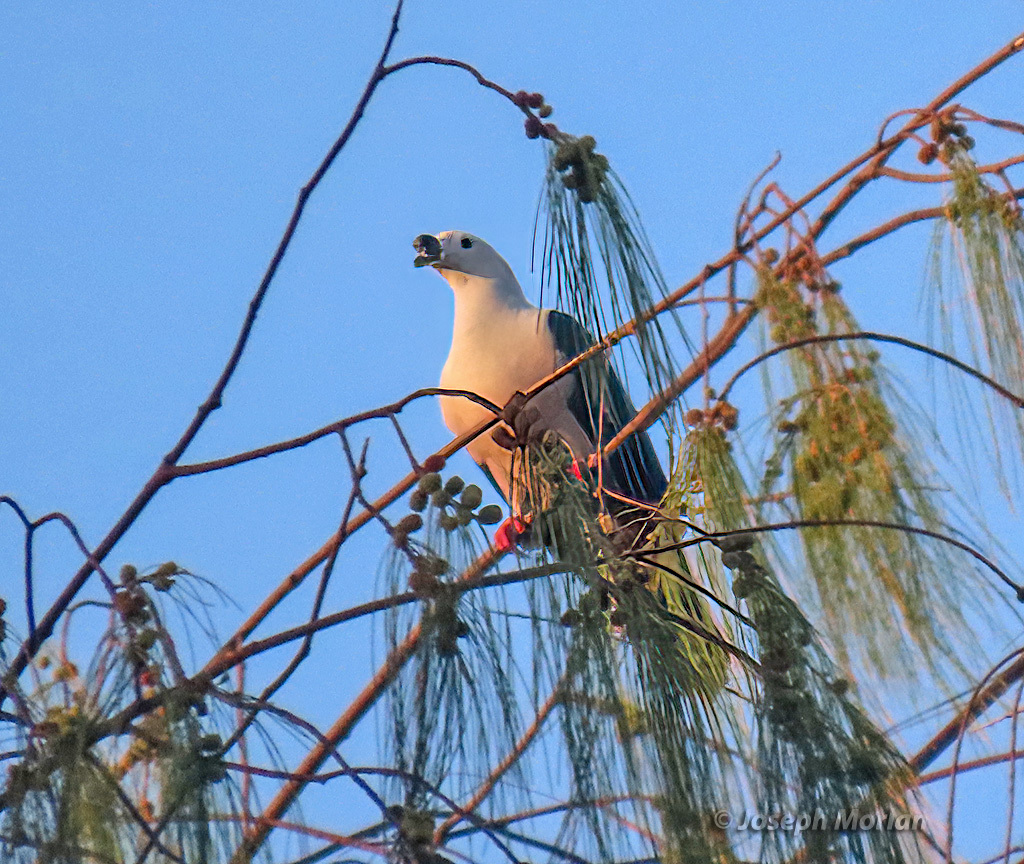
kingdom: Animalia
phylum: Chordata
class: Aves
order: Columbiformes
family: Columbidae
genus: Ducula
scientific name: Ducula myristicivora
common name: Spice imperial pigeon
